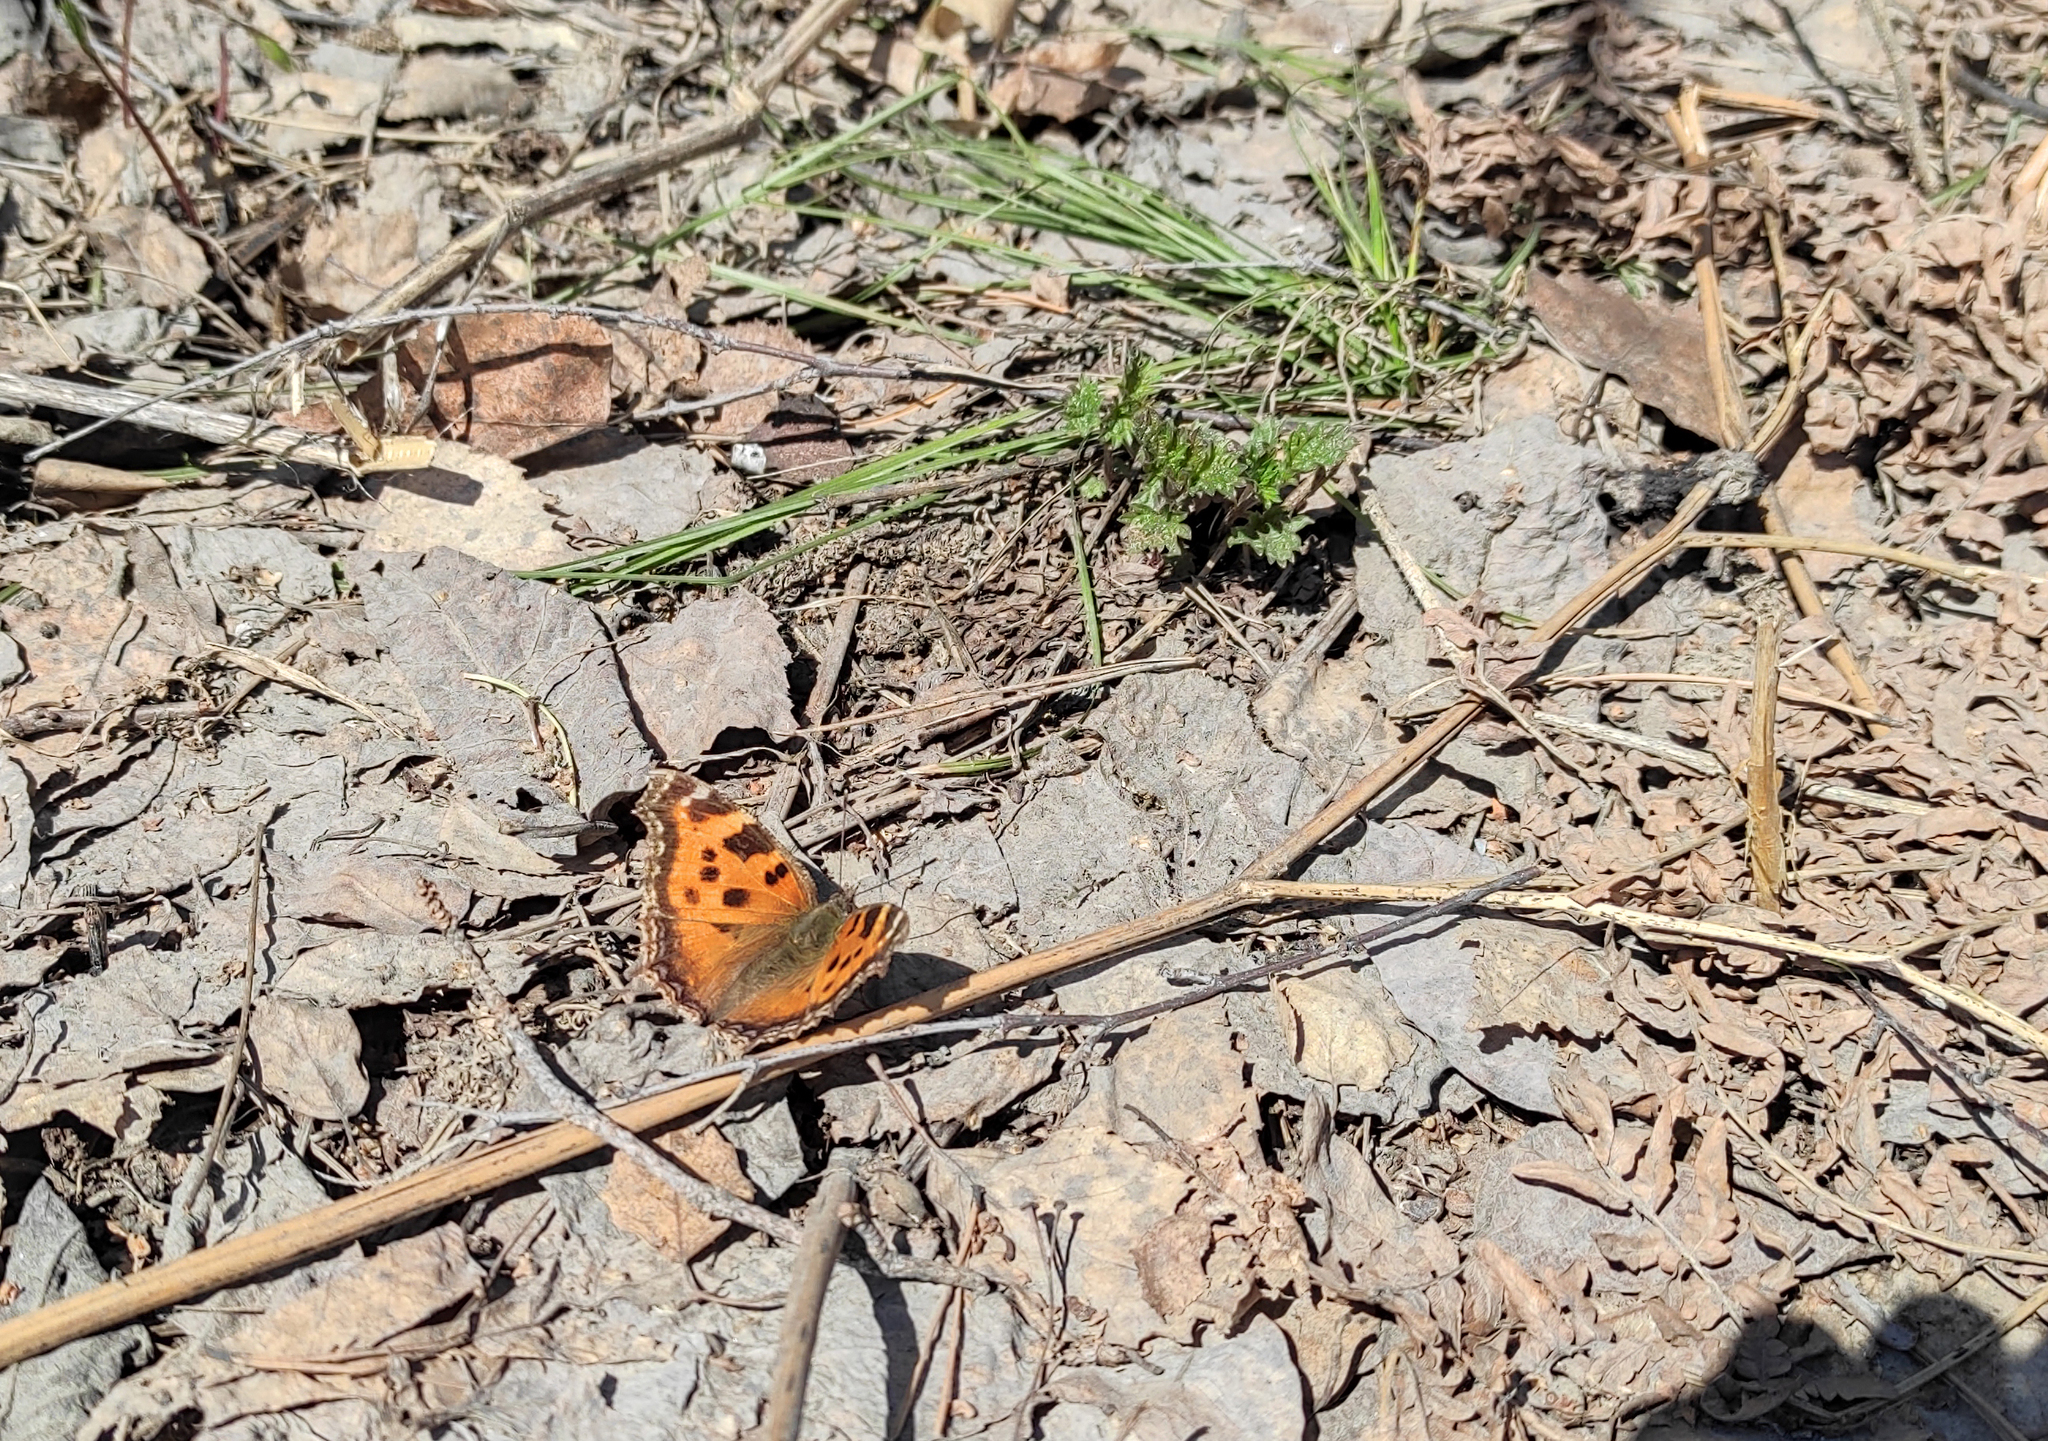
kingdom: Animalia
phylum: Arthropoda
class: Insecta
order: Lepidoptera
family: Nymphalidae
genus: Nymphalis
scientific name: Nymphalis xanthomelas
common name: Scarce tortoiseshell
